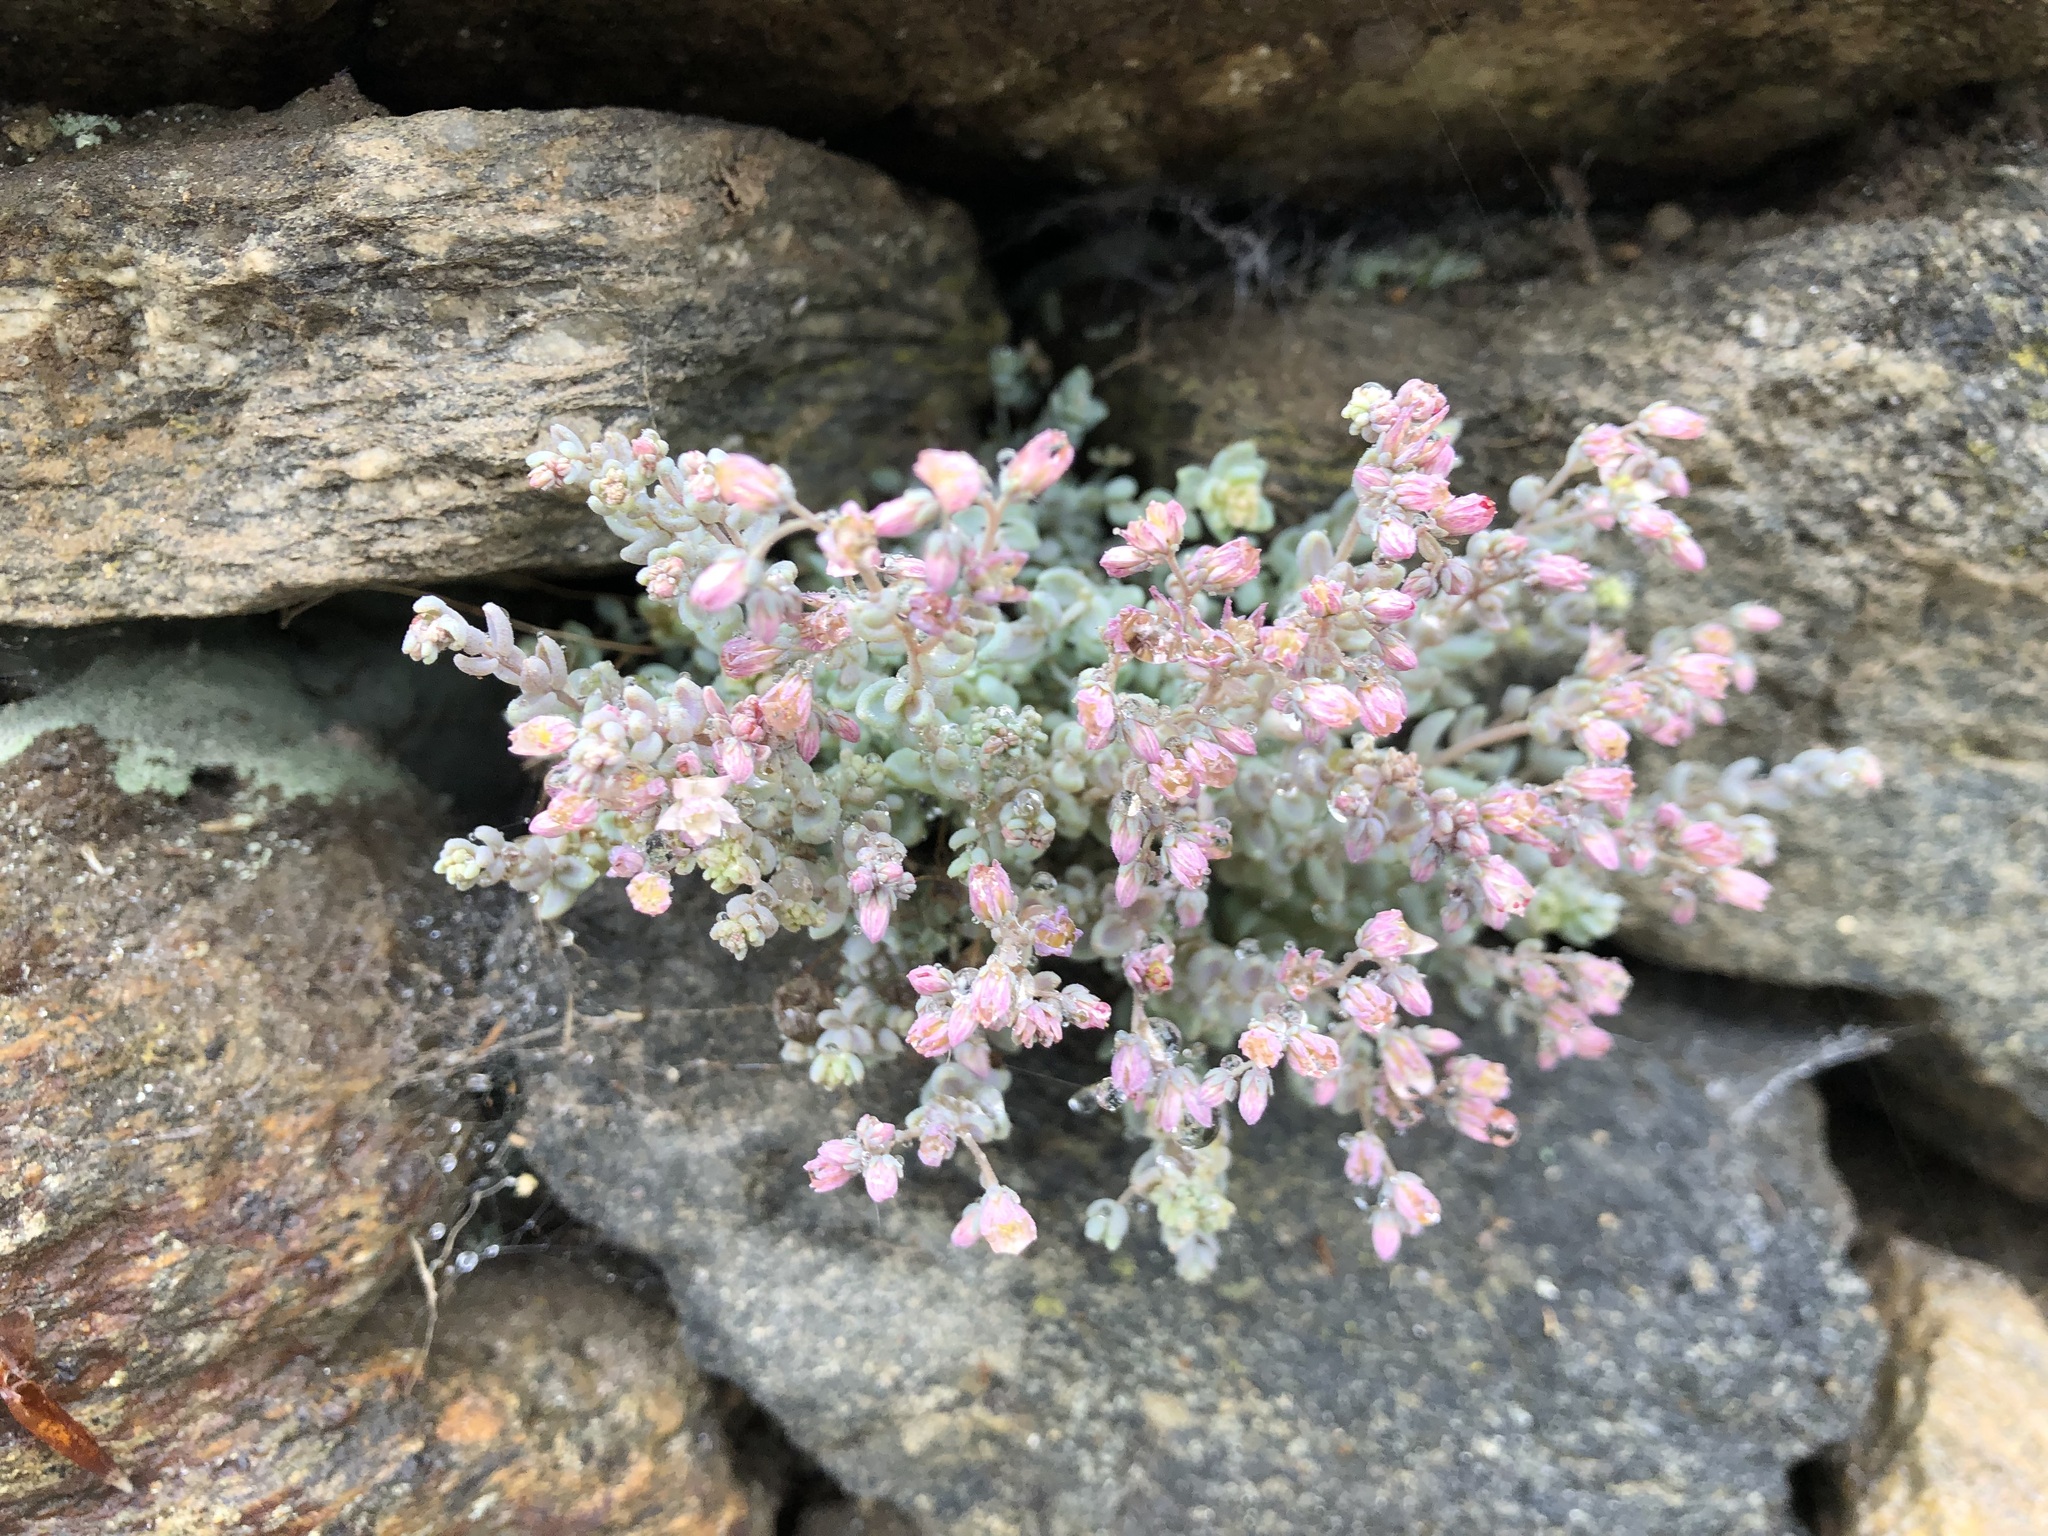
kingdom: Plantae
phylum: Tracheophyta
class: Magnoliopsida
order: Saxifragales
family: Crassulaceae
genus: Sedum
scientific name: Sedum dasyphyllum
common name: Thick-leaf stonecrop
